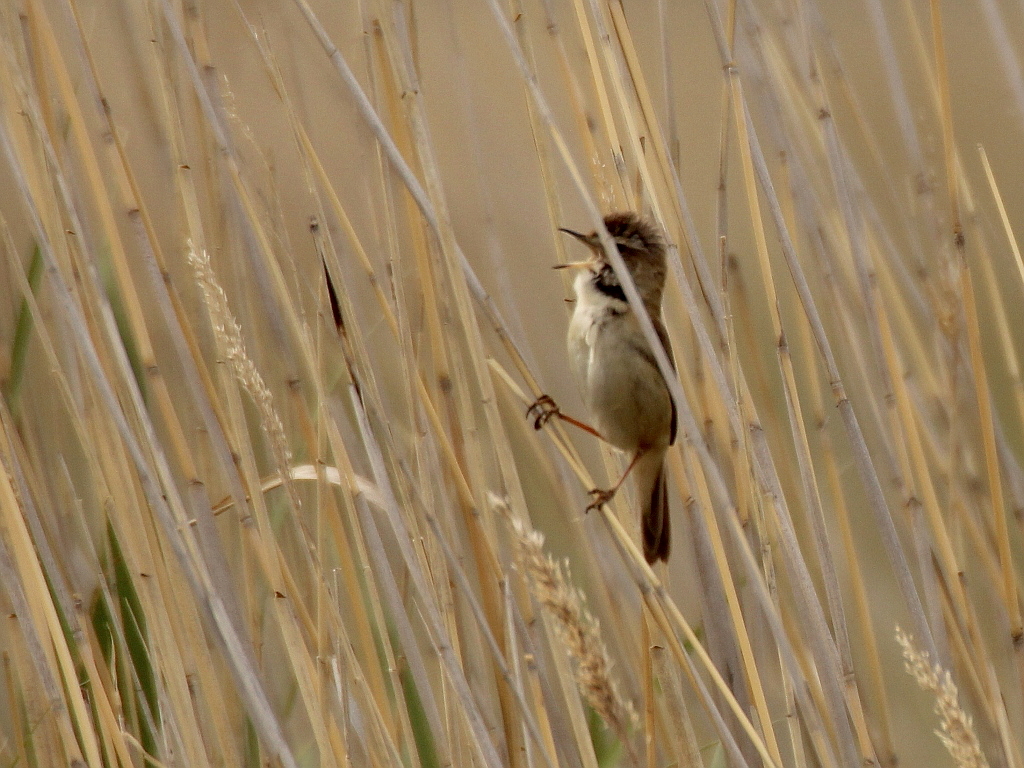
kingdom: Animalia
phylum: Chordata
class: Aves
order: Passeriformes
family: Acrocephalidae
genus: Acrocephalus
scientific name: Acrocephalus agricola
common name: Paddyfield warbler
